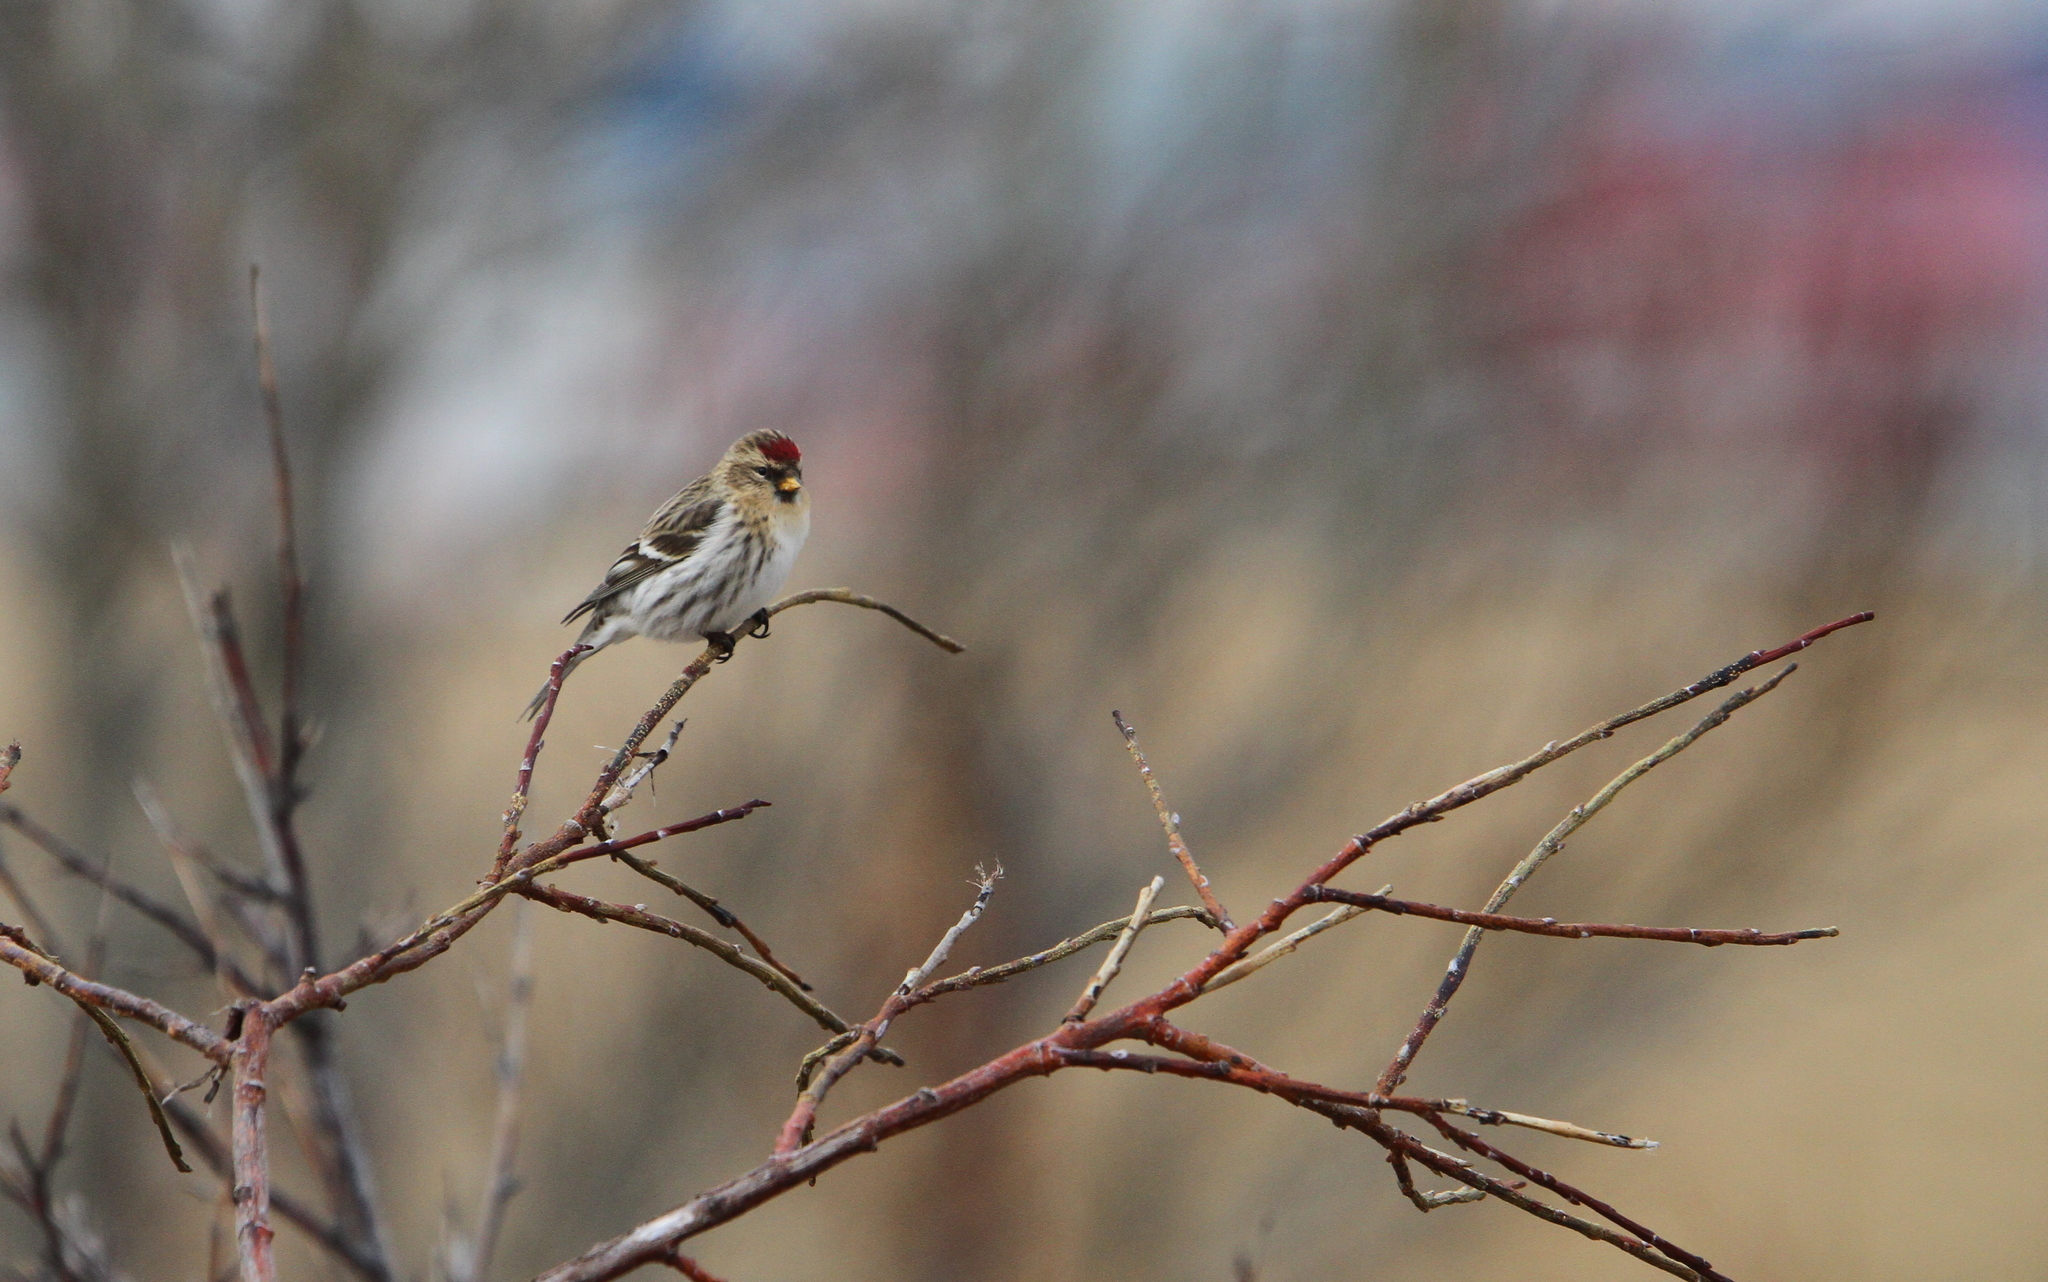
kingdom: Animalia
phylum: Chordata
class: Aves
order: Passeriformes
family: Fringillidae
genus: Acanthis
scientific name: Acanthis flammea
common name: Common redpoll
